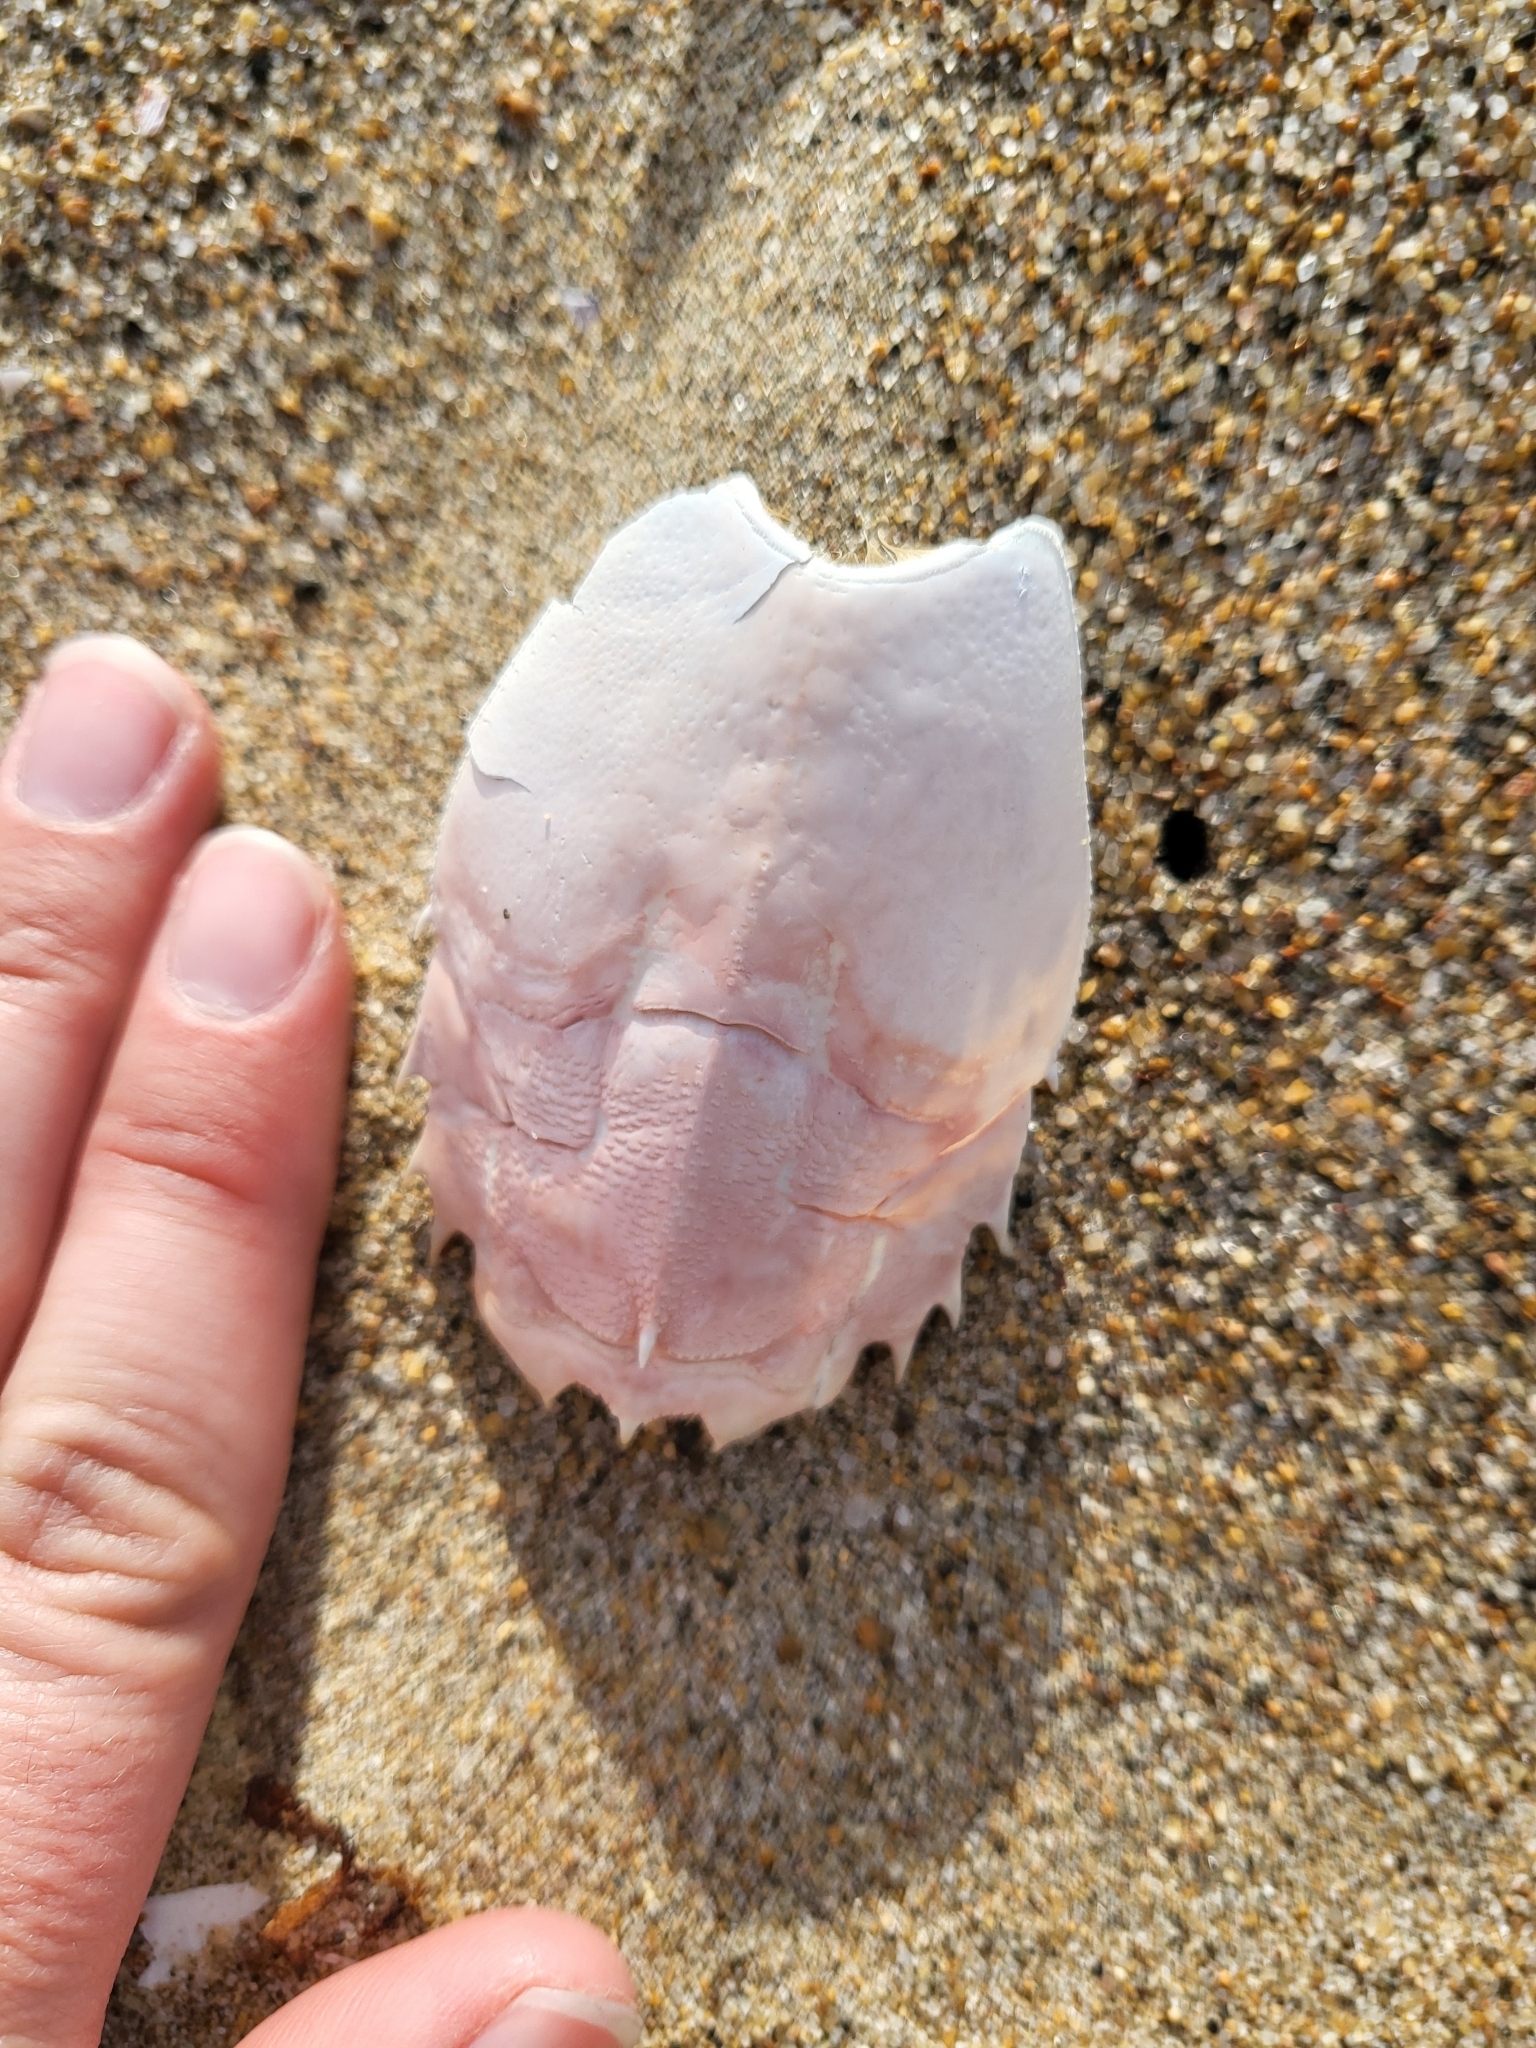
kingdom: Animalia
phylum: Arthropoda
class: Malacostraca
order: Decapoda
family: Blepharipodidae
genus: Blepharipoda
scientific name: Blepharipoda occidentalis
